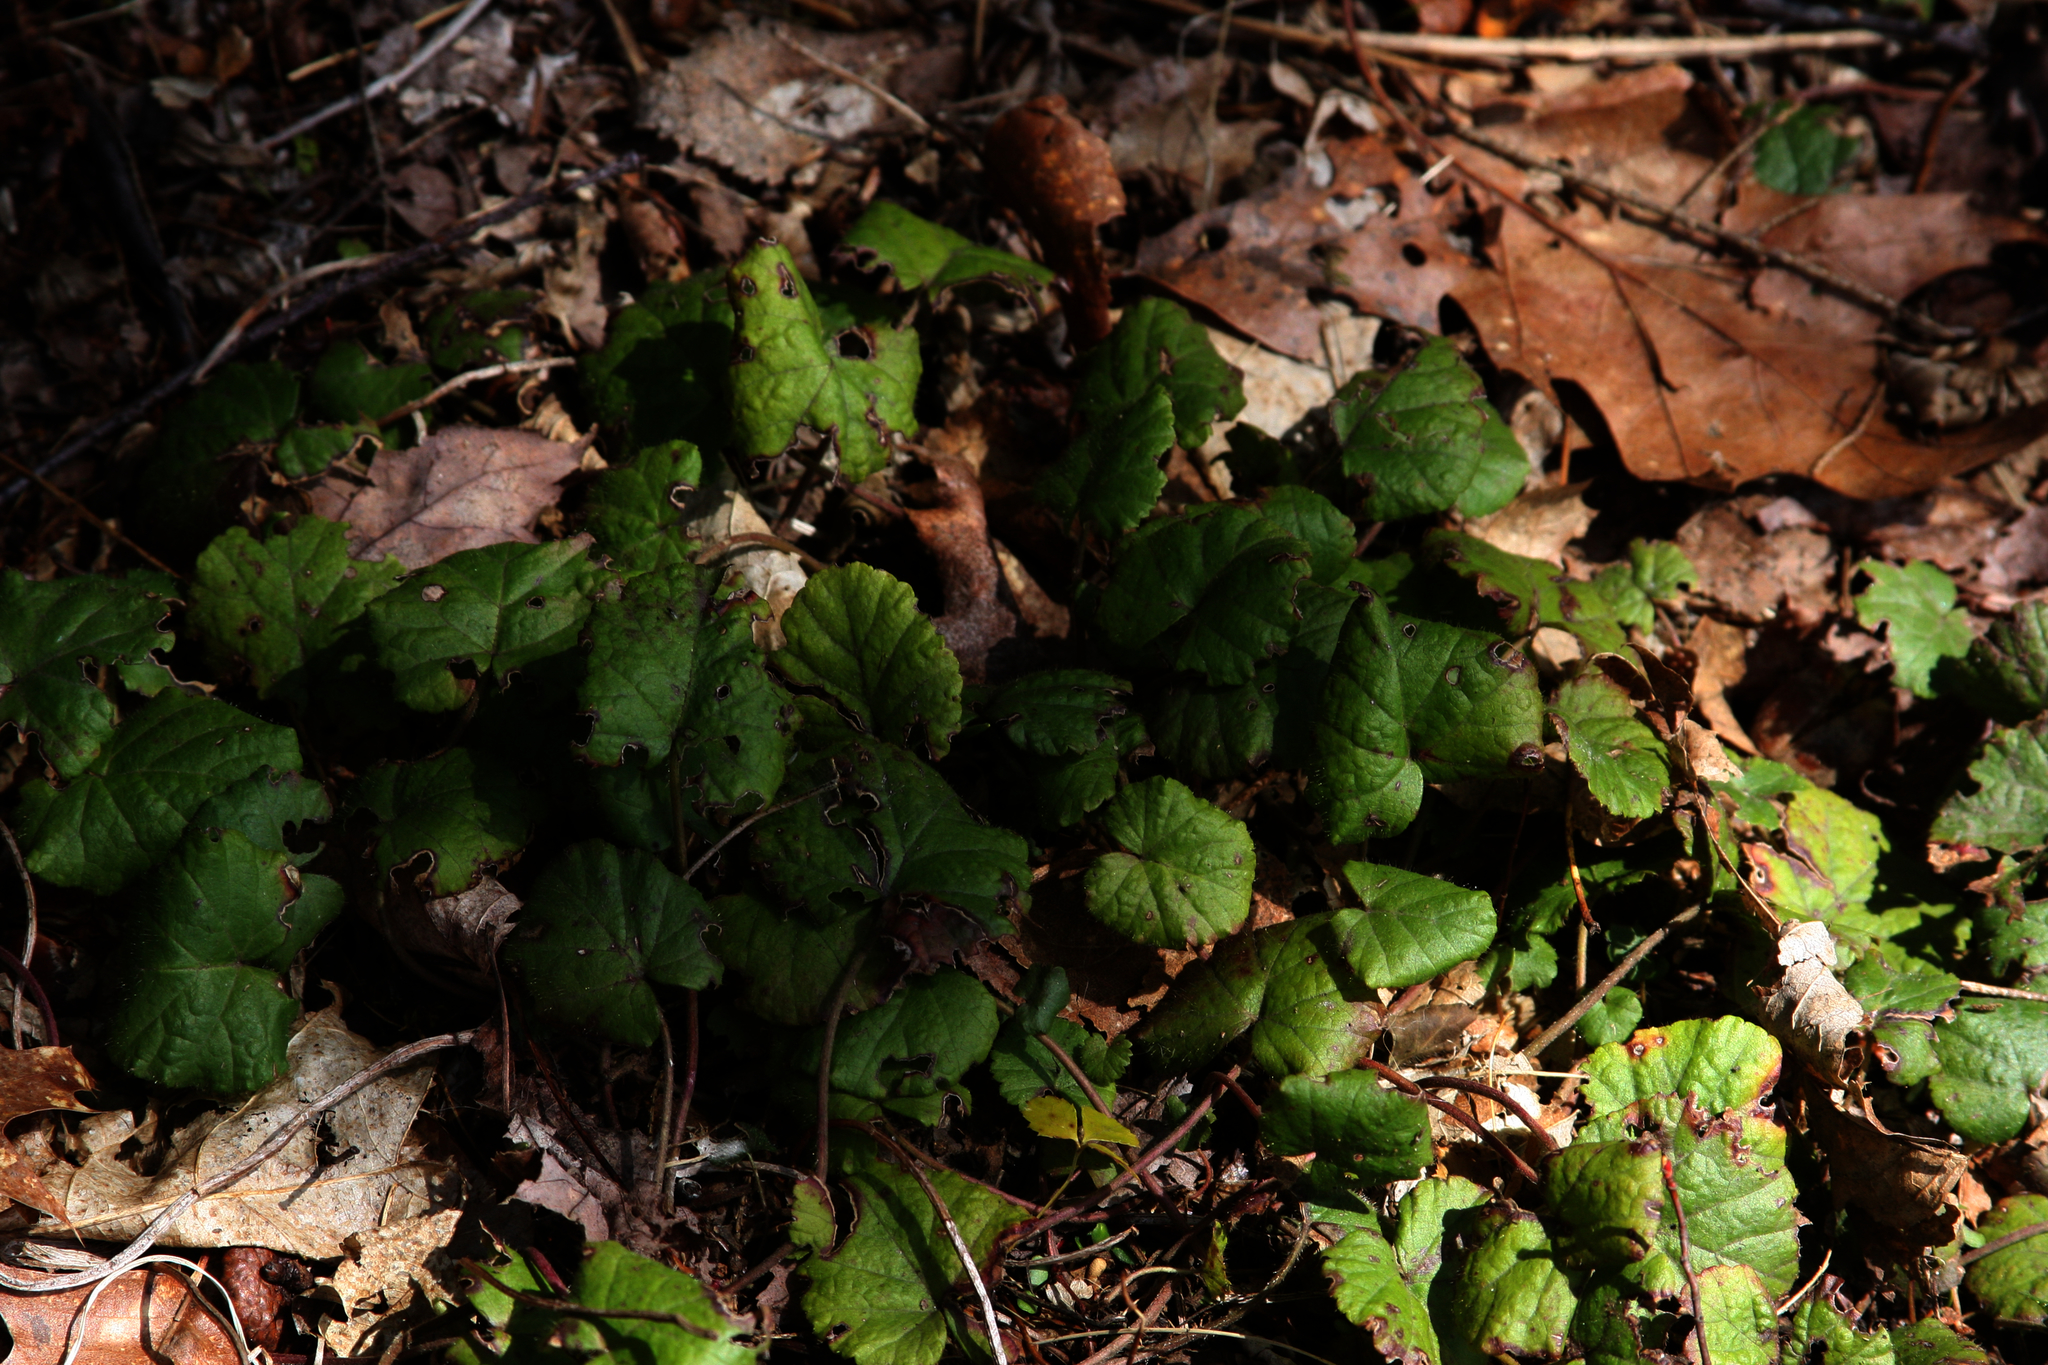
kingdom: Plantae
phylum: Tracheophyta
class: Magnoliopsida
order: Rosales
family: Rosaceae
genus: Dalibarda
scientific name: Dalibarda repens
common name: Dewdrop
